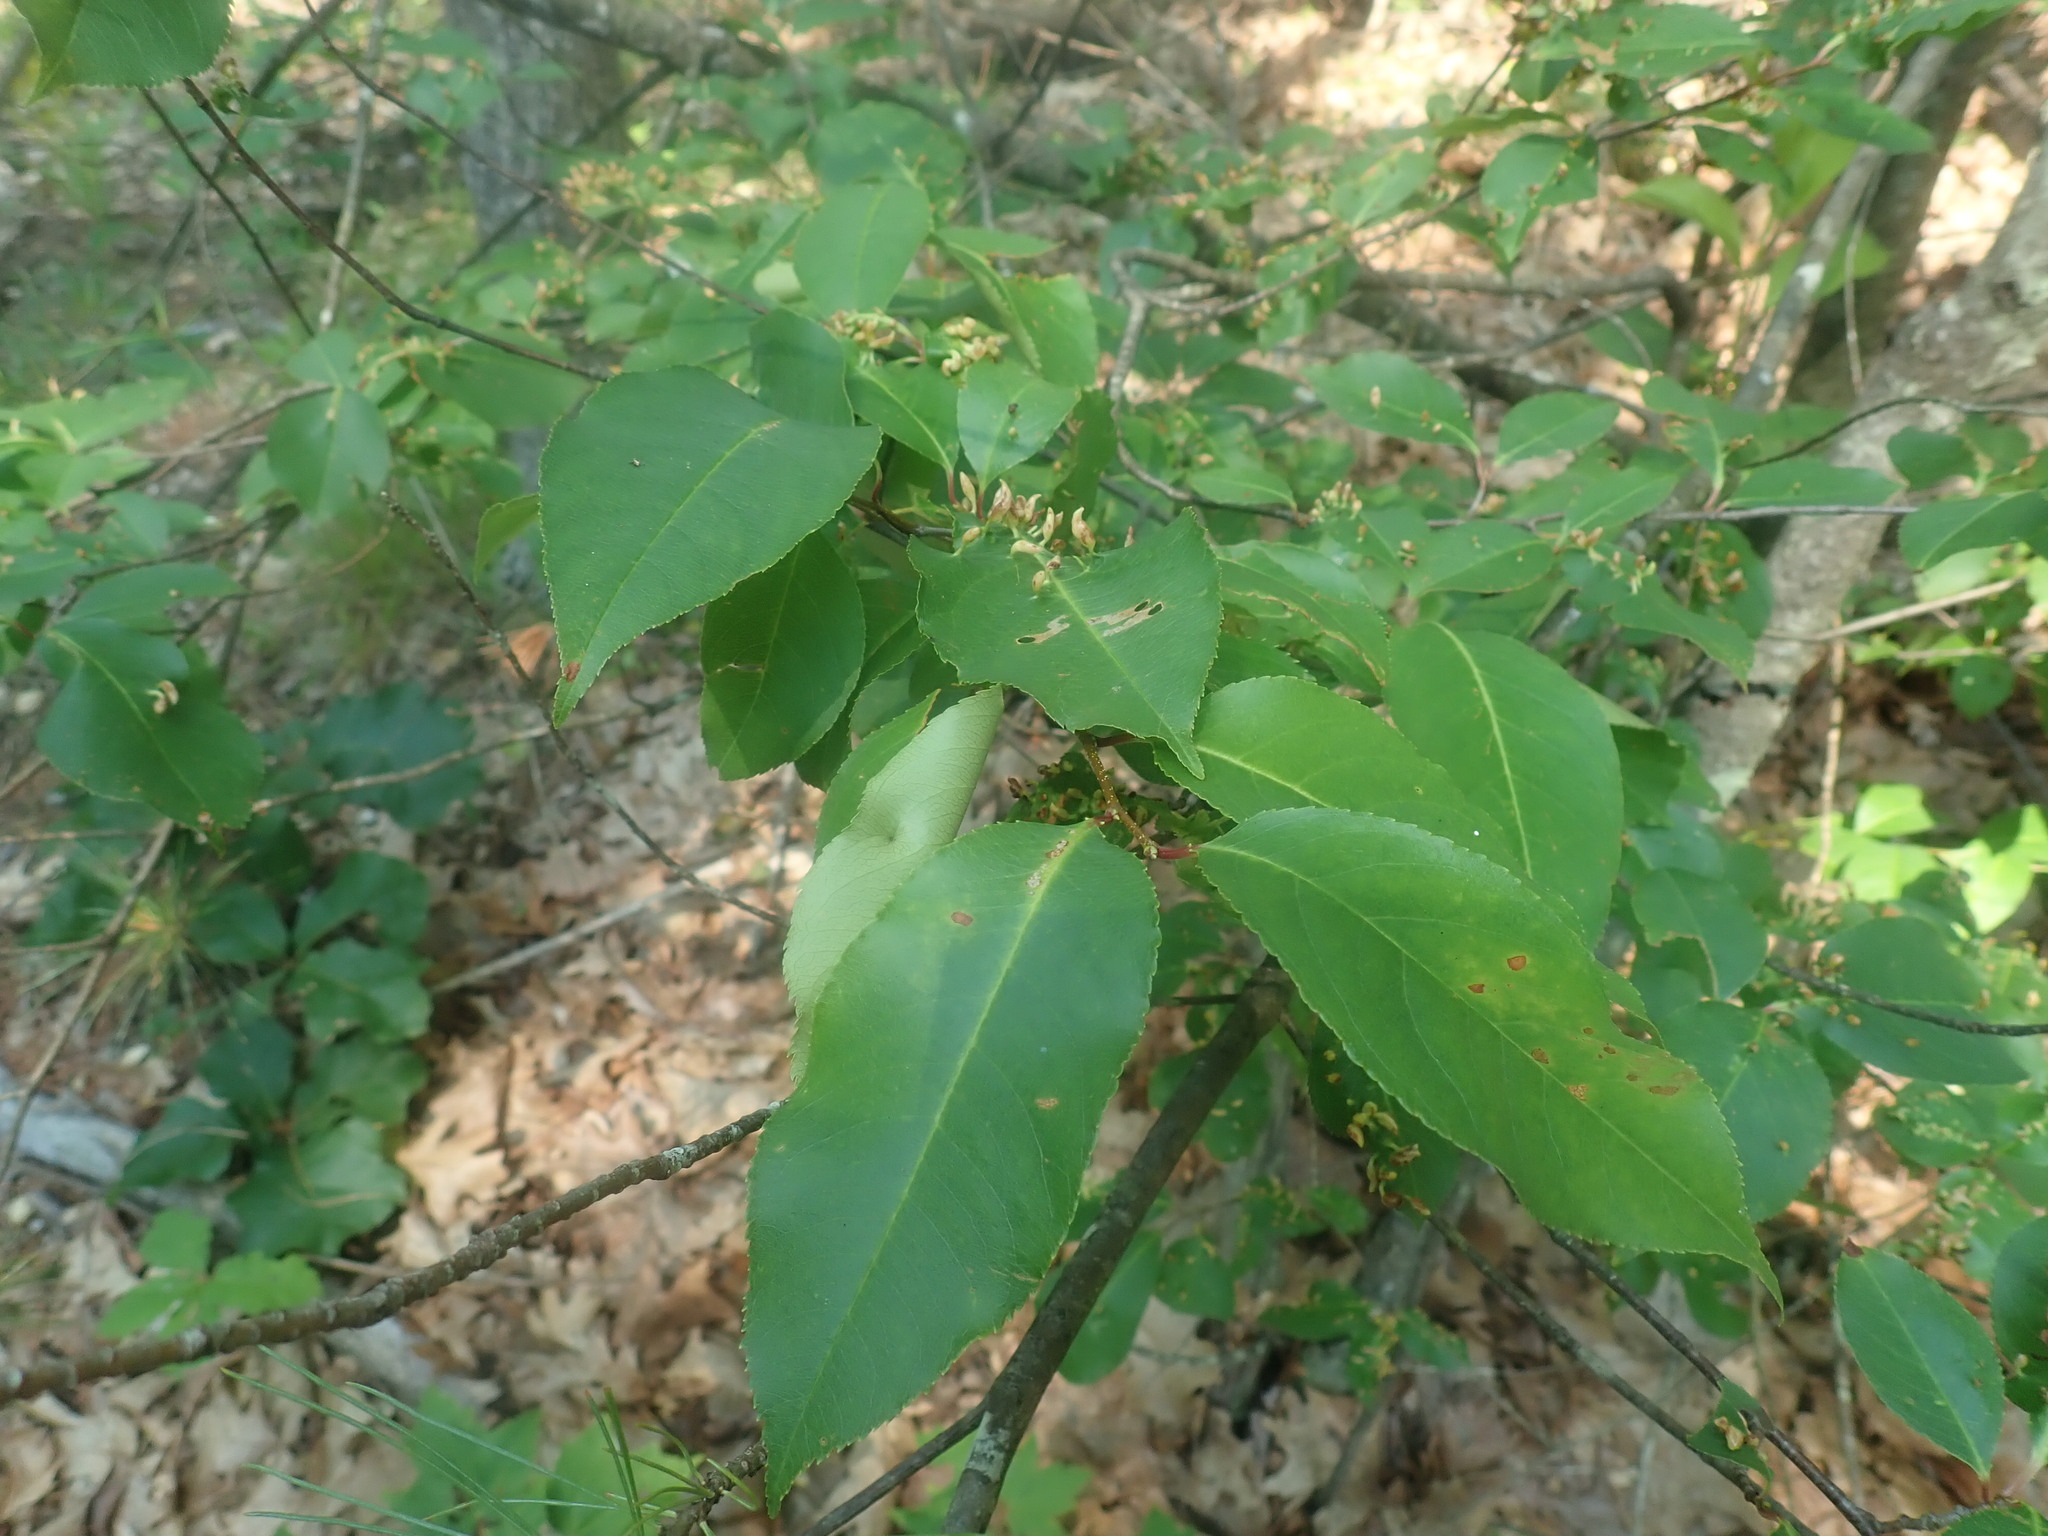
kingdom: Plantae
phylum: Tracheophyta
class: Magnoliopsida
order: Rosales
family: Rosaceae
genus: Prunus
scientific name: Prunus serotina
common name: Black cherry
